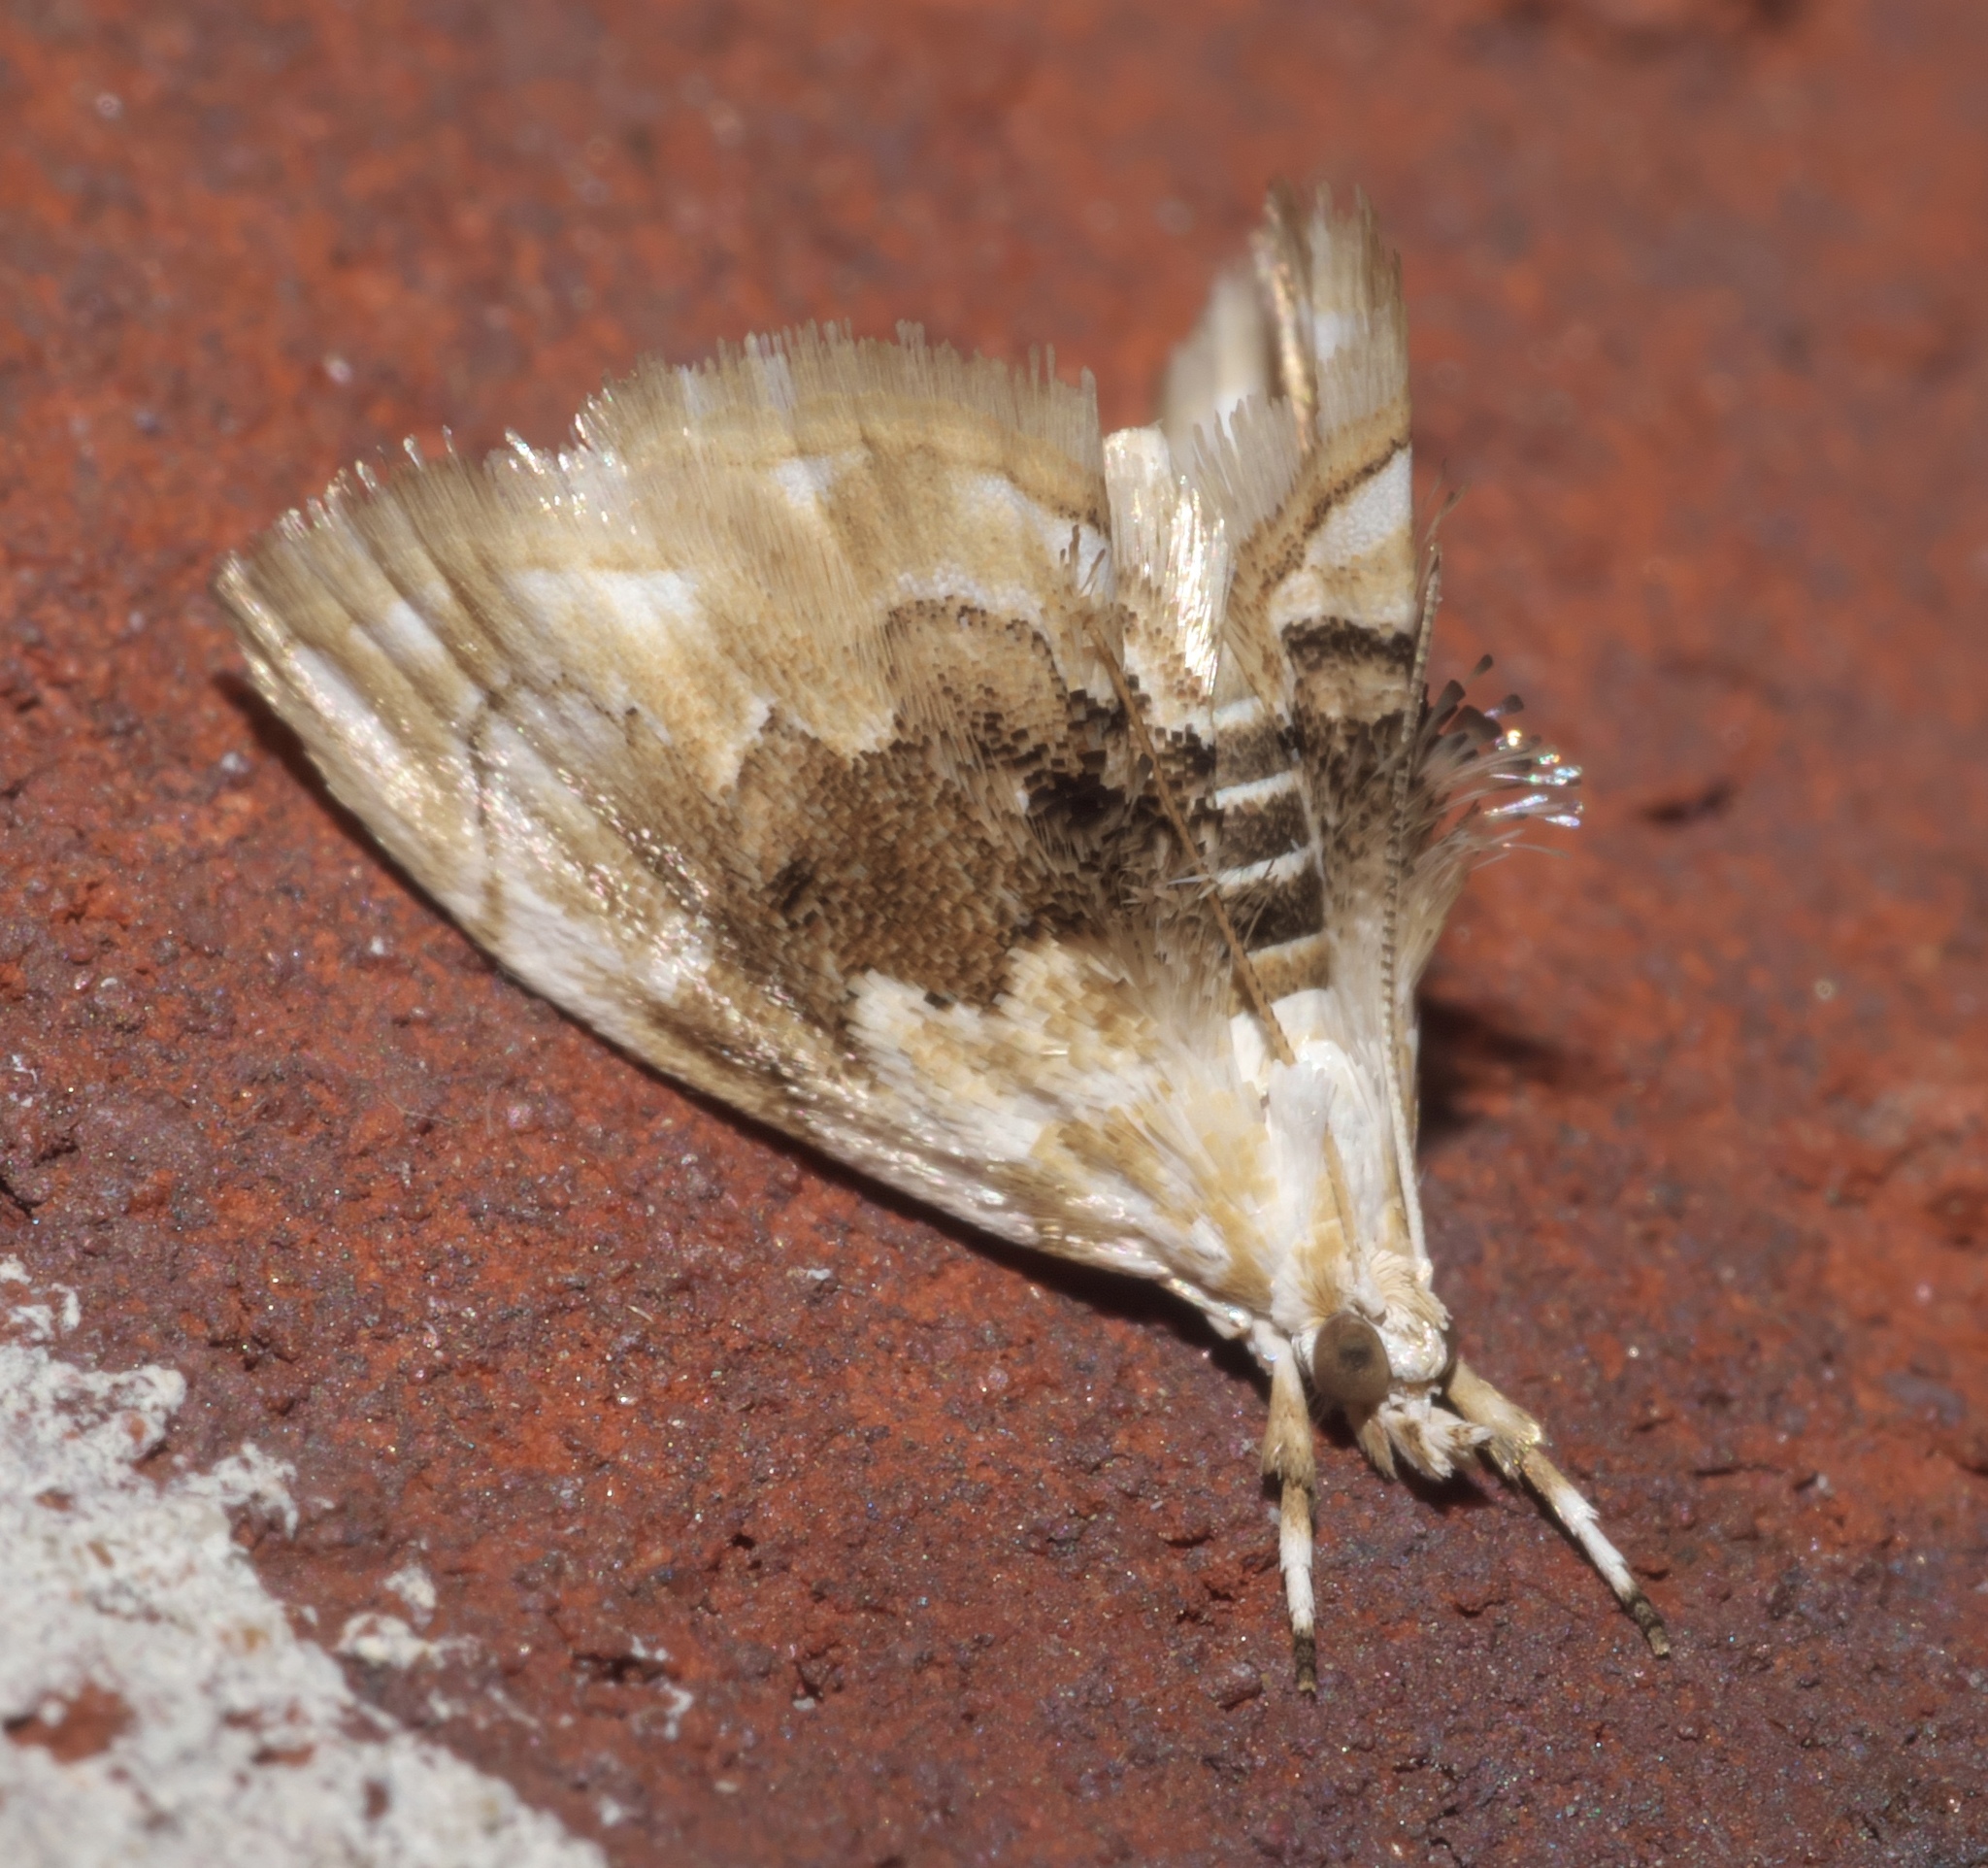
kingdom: Animalia
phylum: Arthropoda
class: Insecta
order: Lepidoptera
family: Crambidae
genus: Lipocosma
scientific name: Lipocosma sicalis
